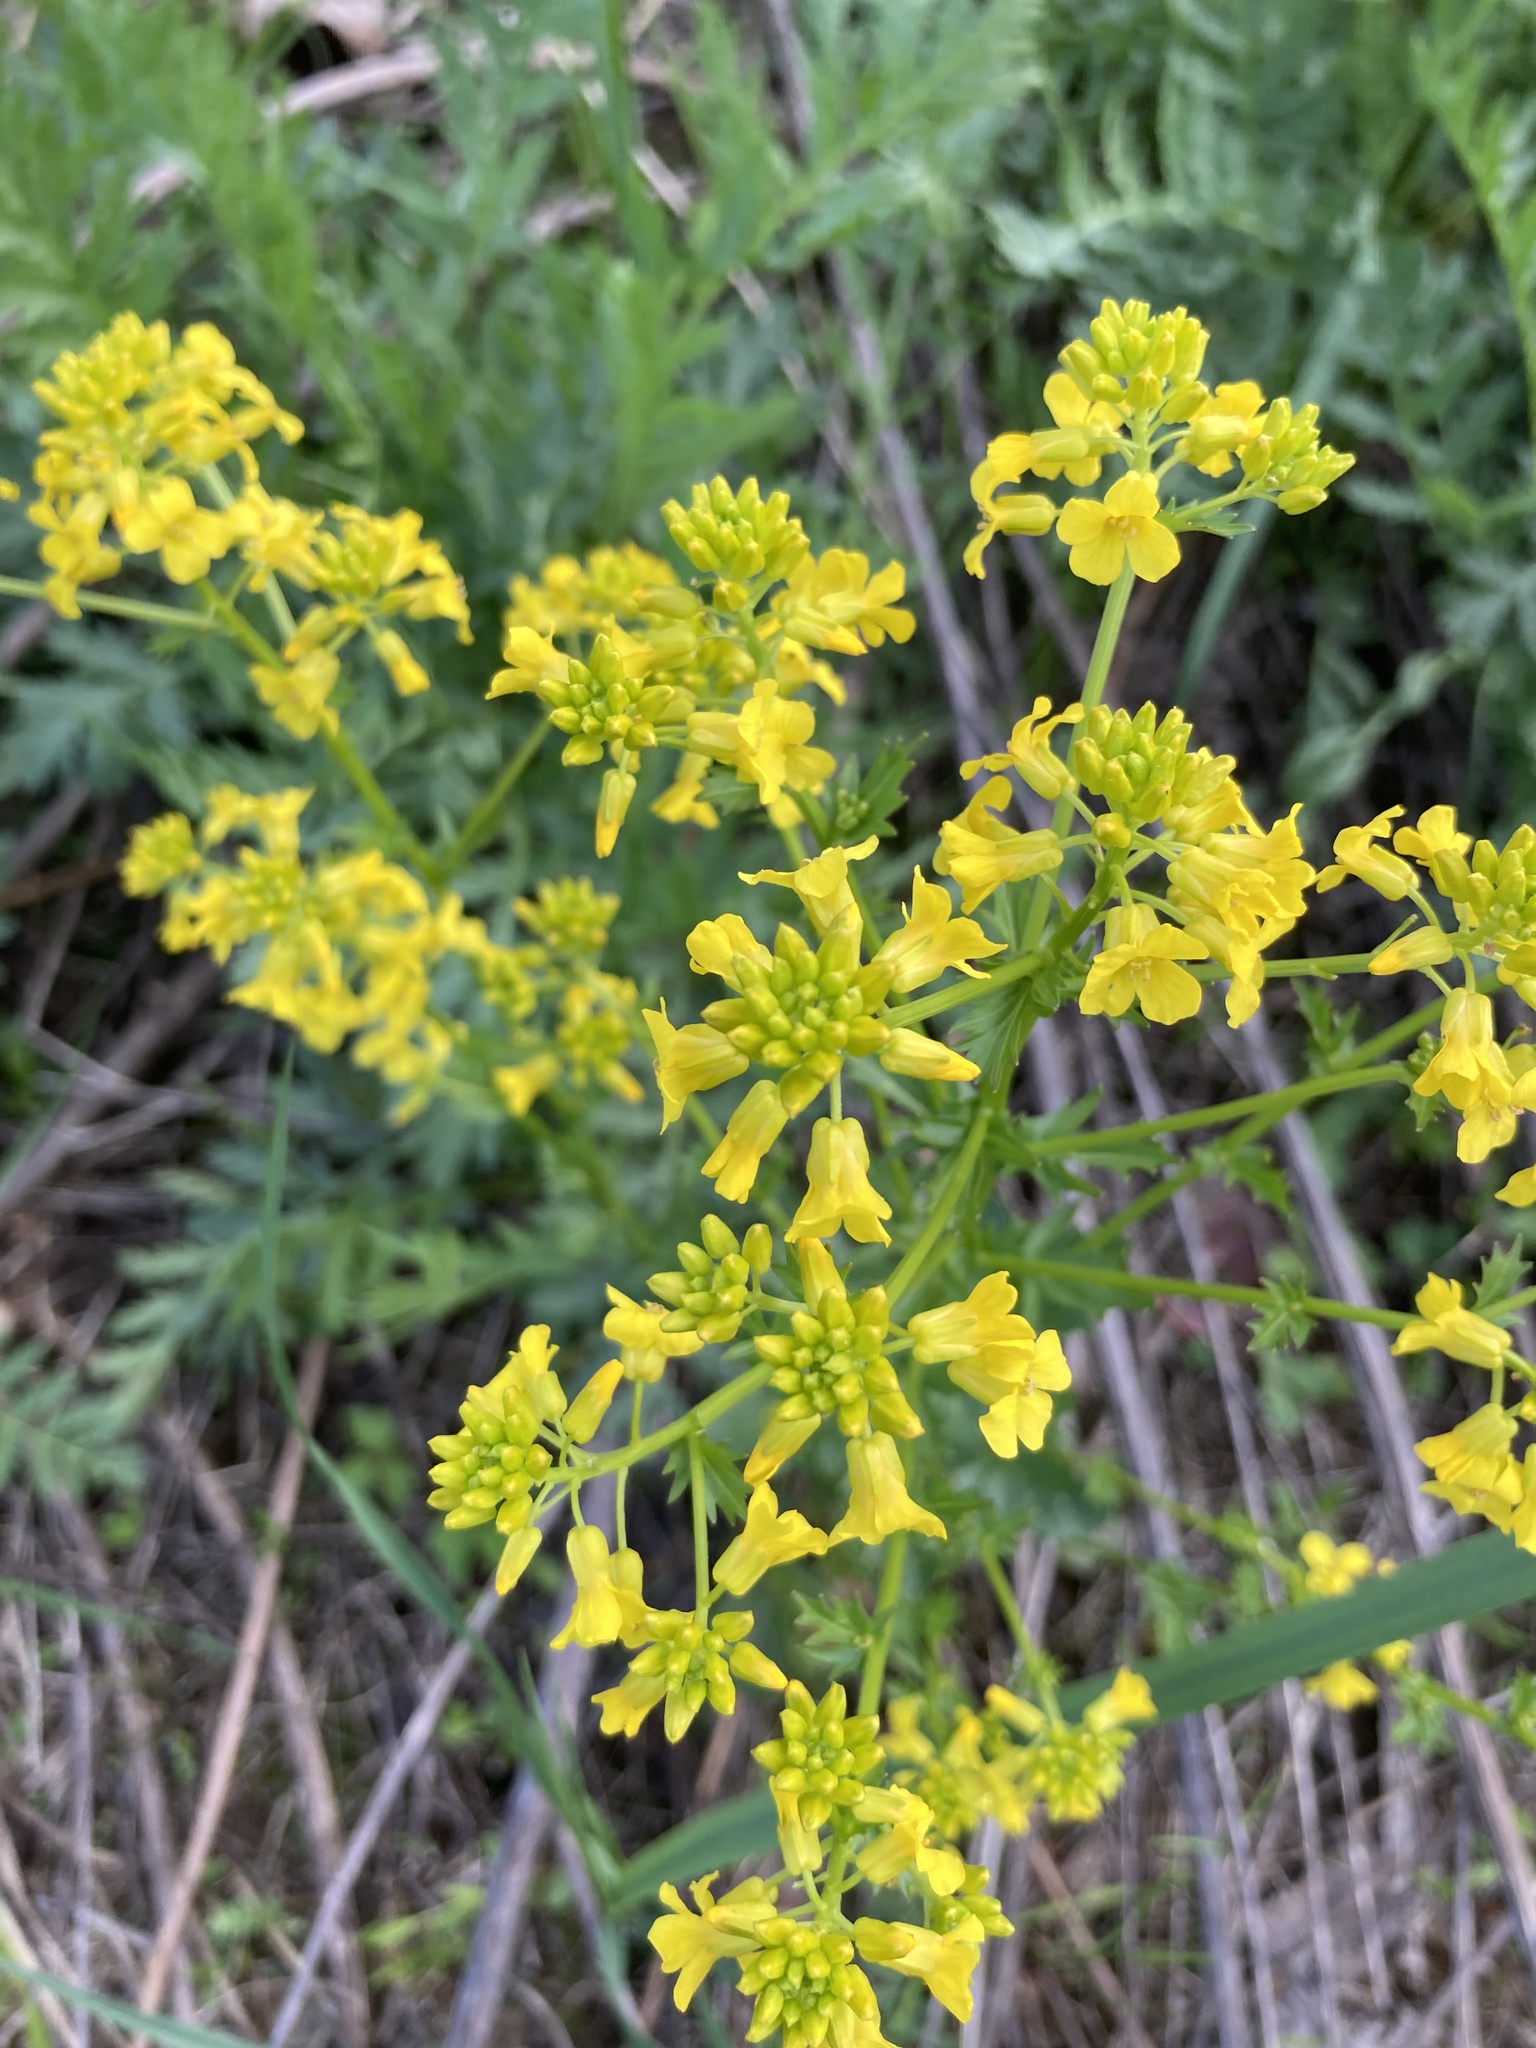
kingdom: Plantae
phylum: Tracheophyta
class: Magnoliopsida
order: Brassicales
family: Brassicaceae
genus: Barbarea
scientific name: Barbarea vulgaris
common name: Cressy-greens
